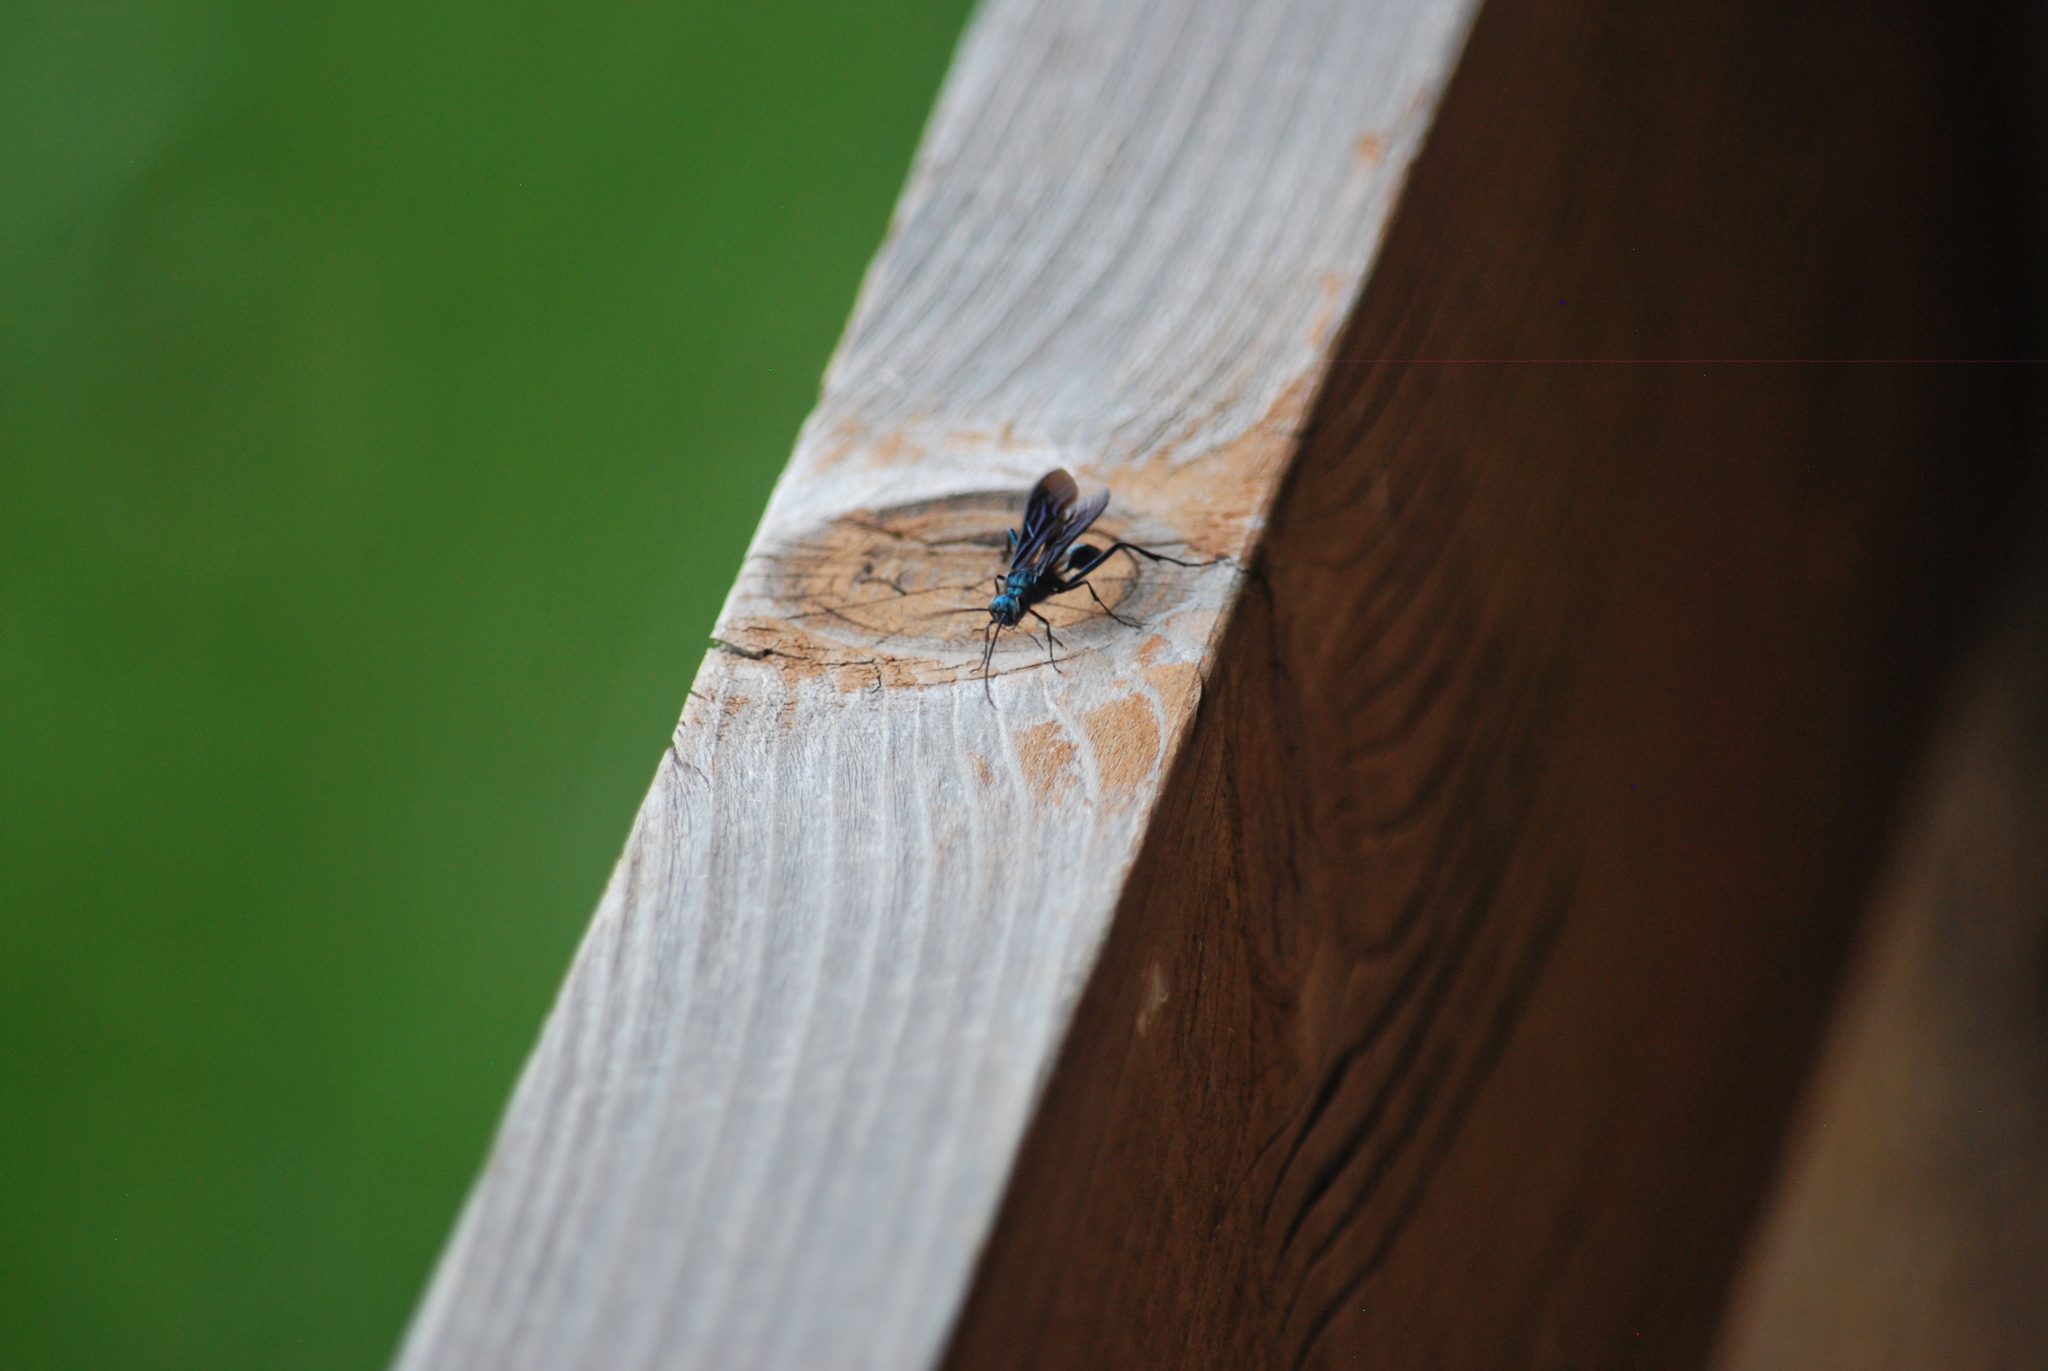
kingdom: Animalia
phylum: Arthropoda
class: Insecta
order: Hymenoptera
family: Sphecidae
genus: Chalybion
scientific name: Chalybion californicum
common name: Mud dauber
